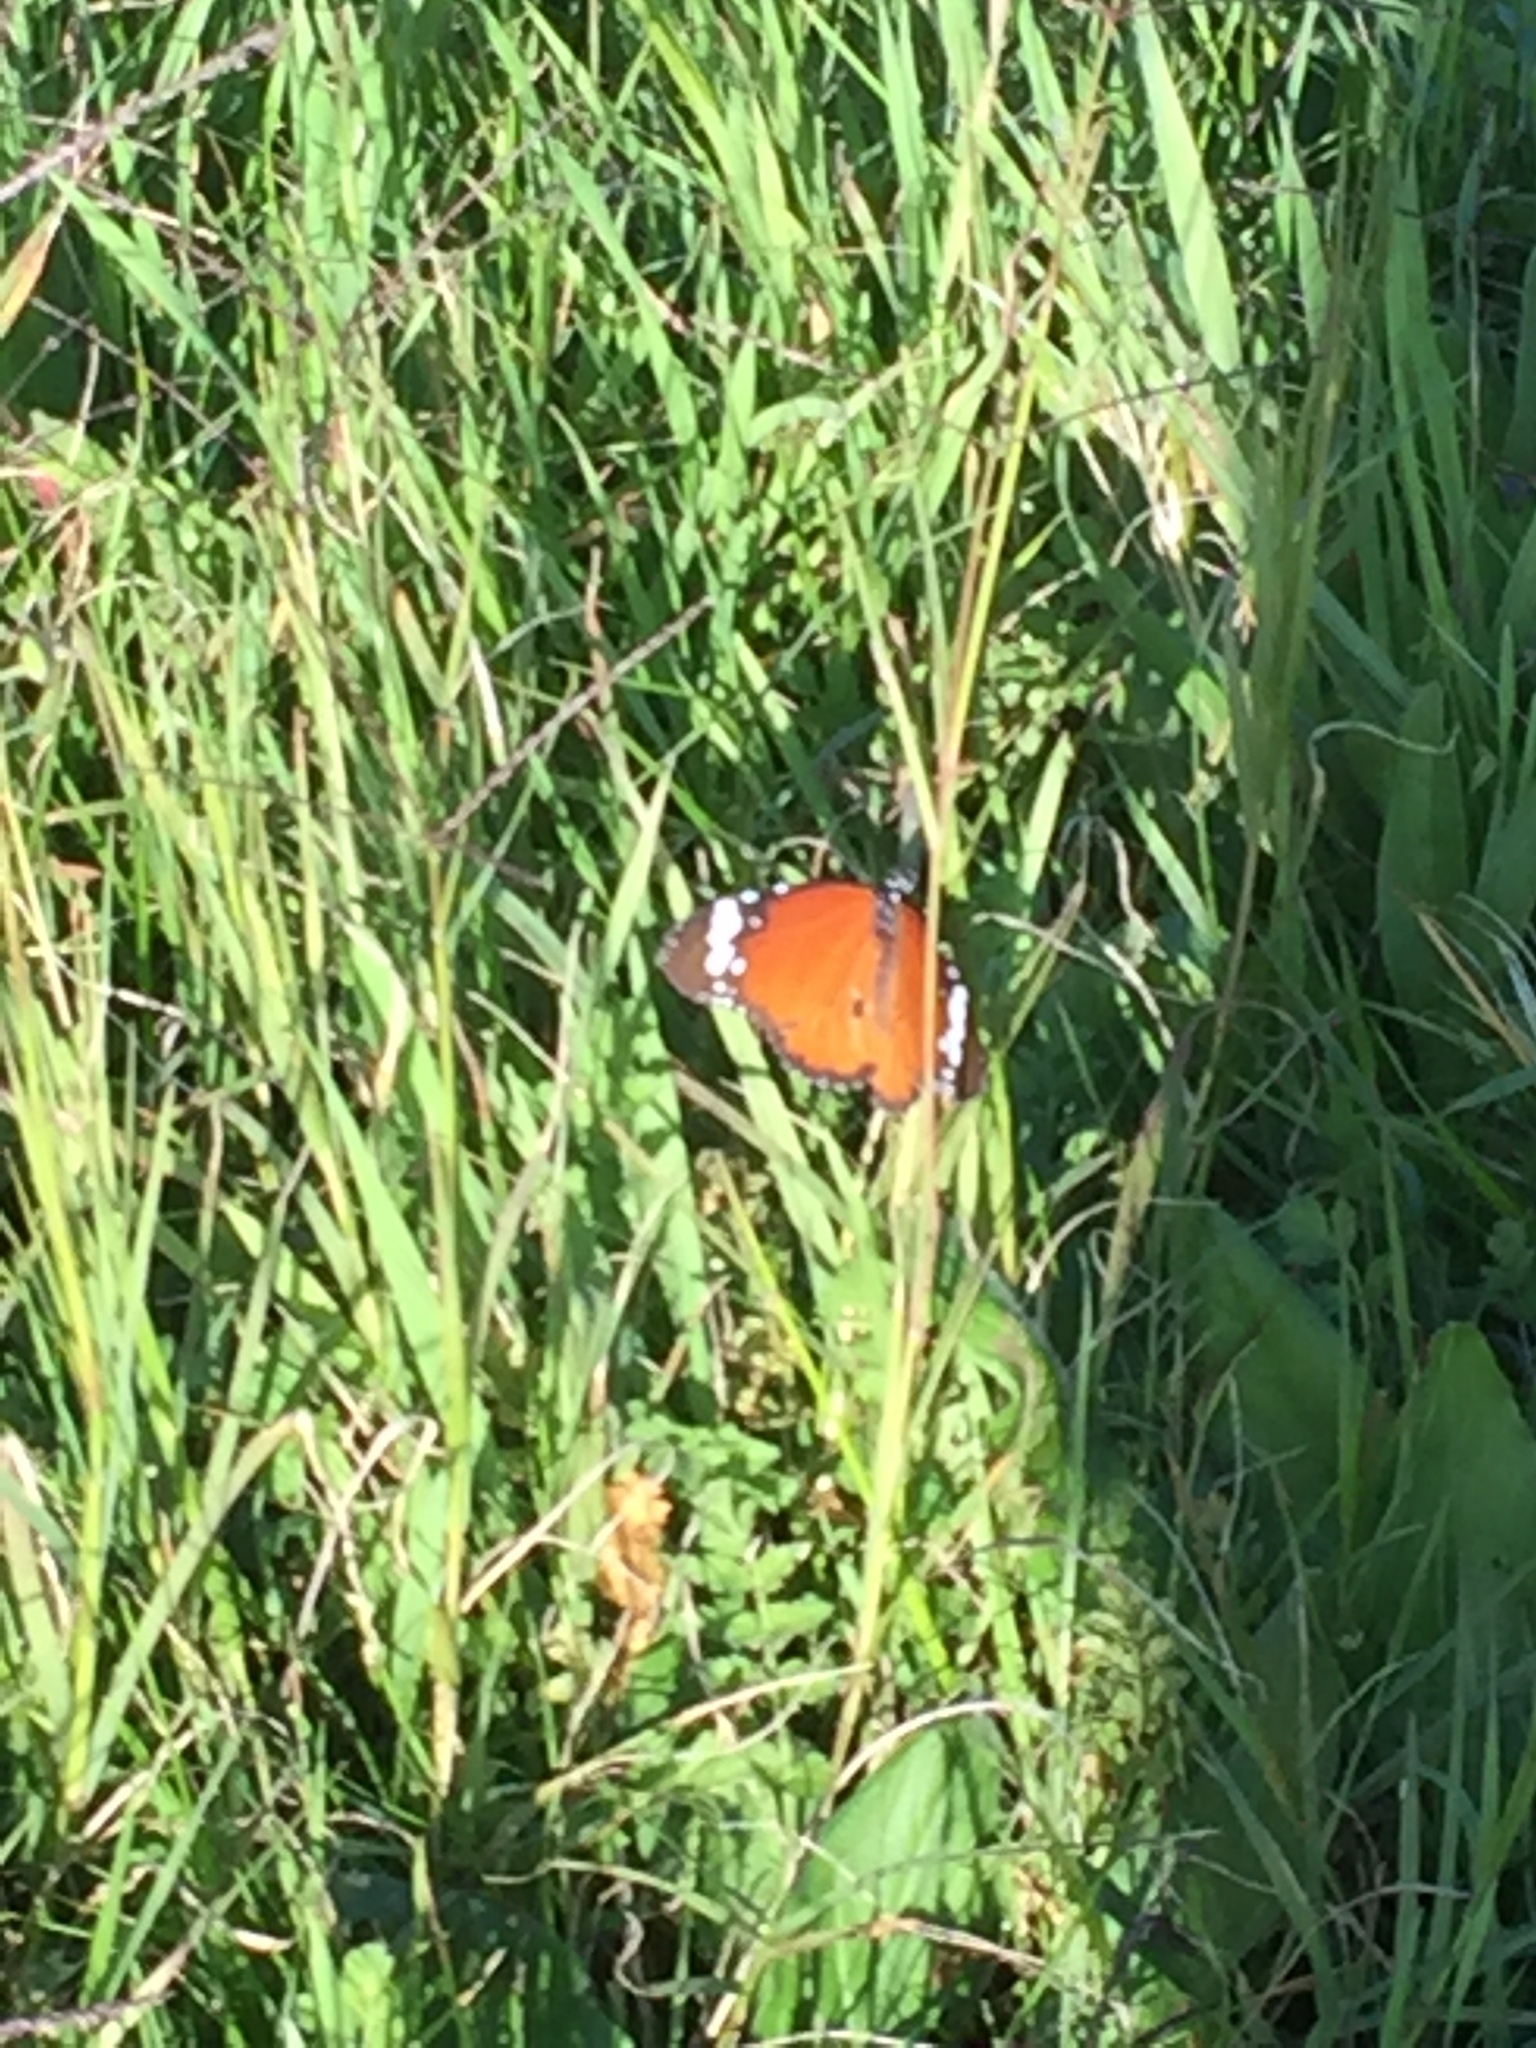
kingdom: Animalia
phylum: Arthropoda
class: Insecta
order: Lepidoptera
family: Nymphalidae
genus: Danaus
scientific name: Danaus chrysippus
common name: Plain tiger
